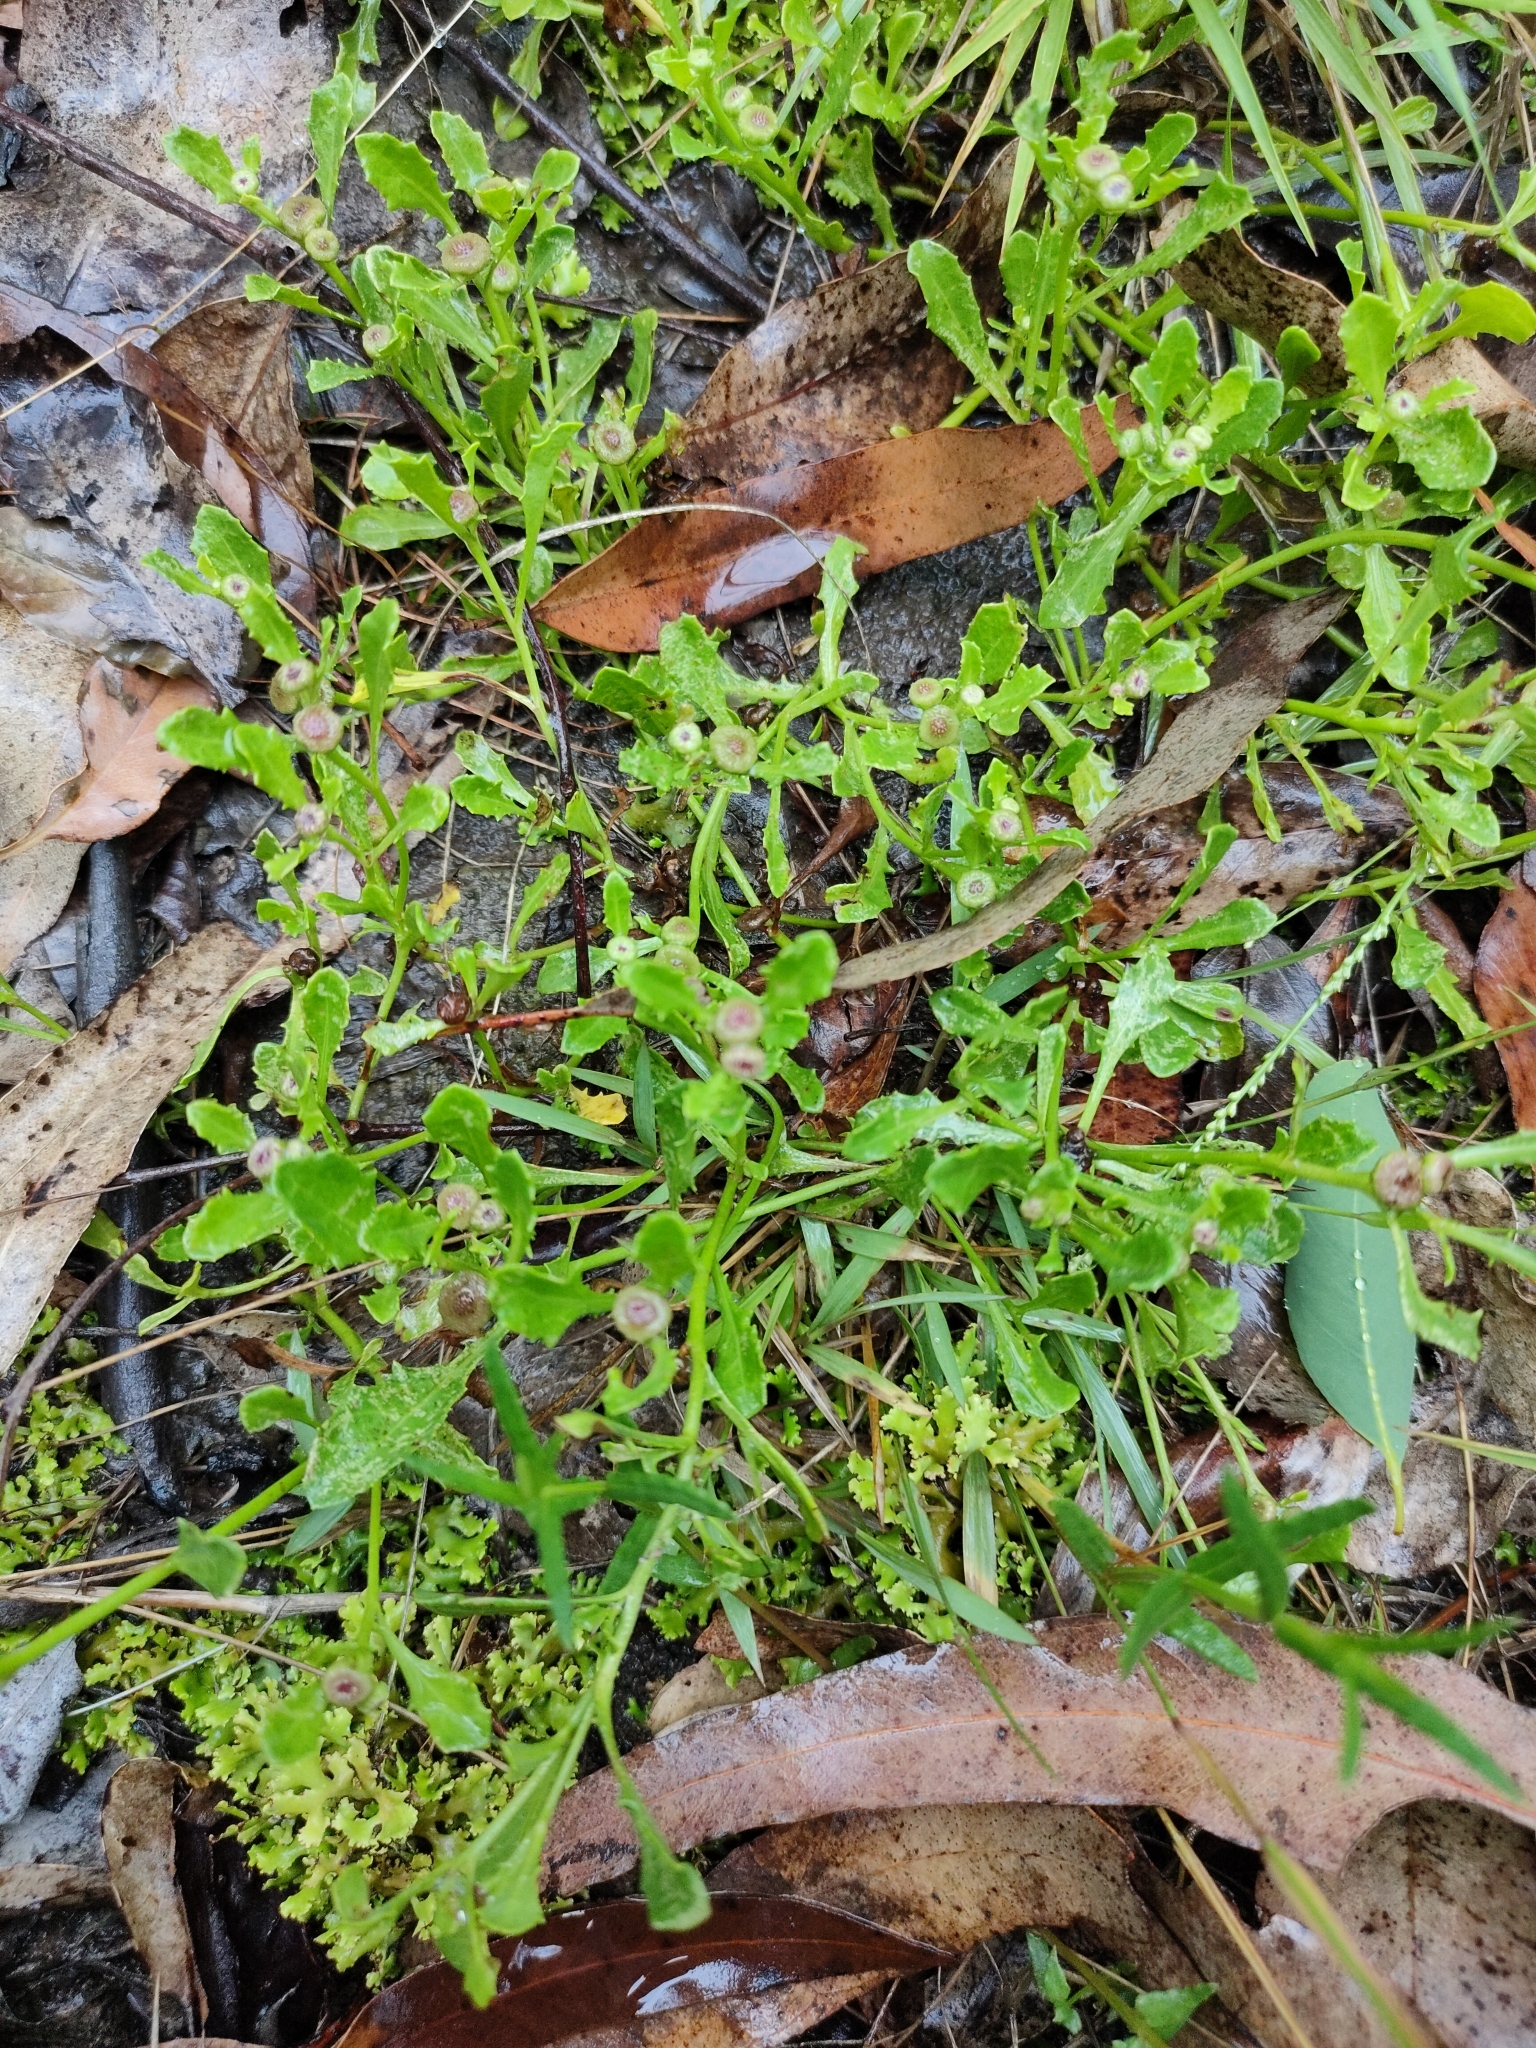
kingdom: Plantae
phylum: Tracheophyta
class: Magnoliopsida
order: Asterales
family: Asteraceae
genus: Sphaeromorphaea
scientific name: Sphaeromorphaea australis
